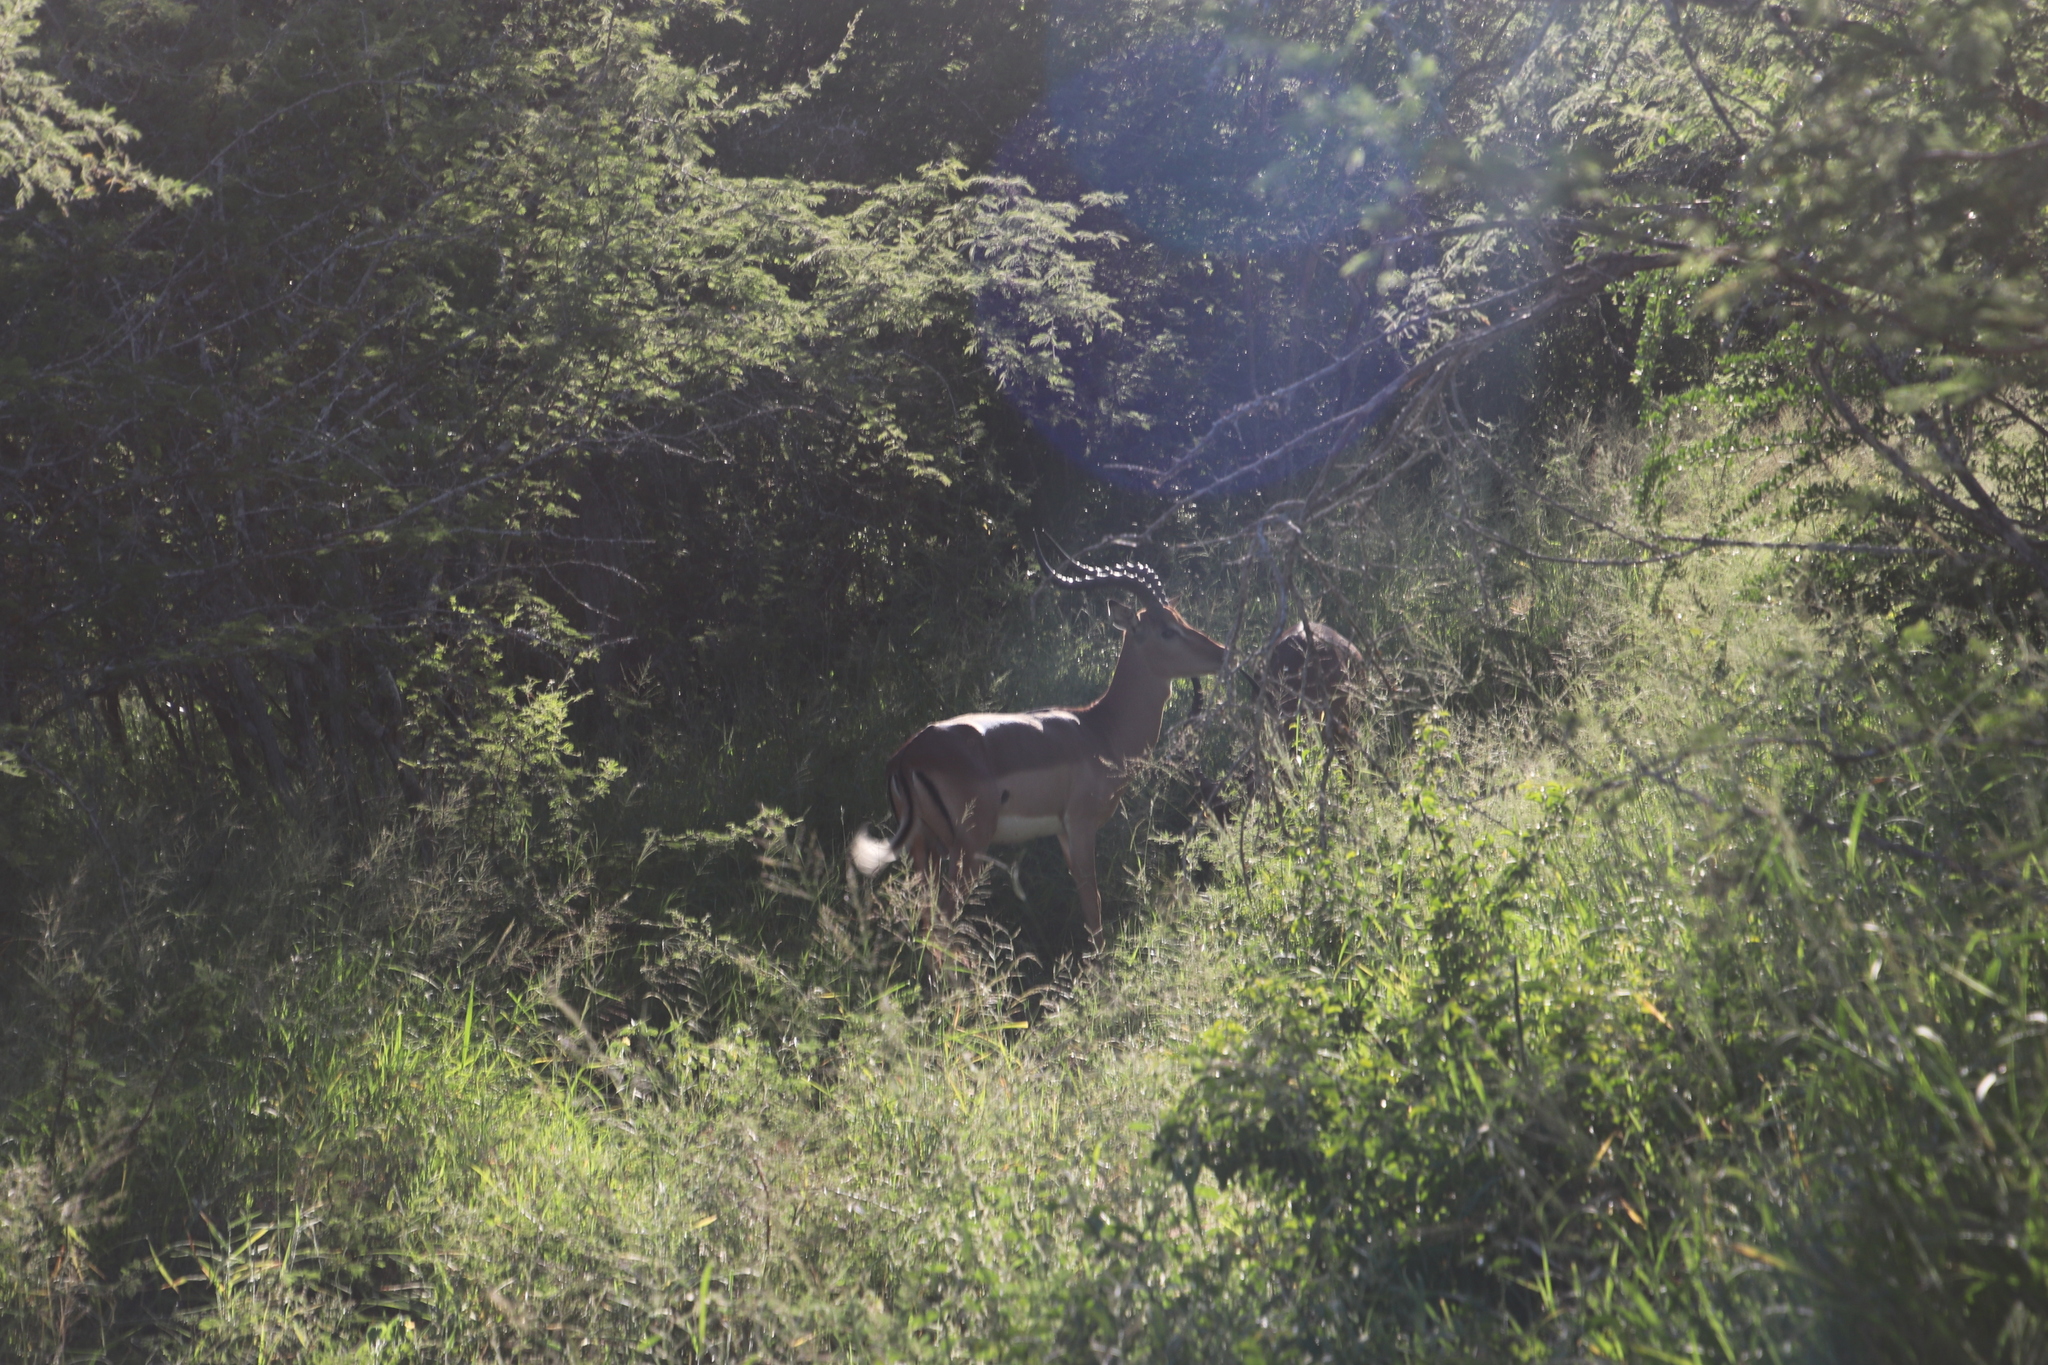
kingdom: Animalia
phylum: Chordata
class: Mammalia
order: Artiodactyla
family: Bovidae
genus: Aepyceros
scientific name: Aepyceros melampus
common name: Impala
